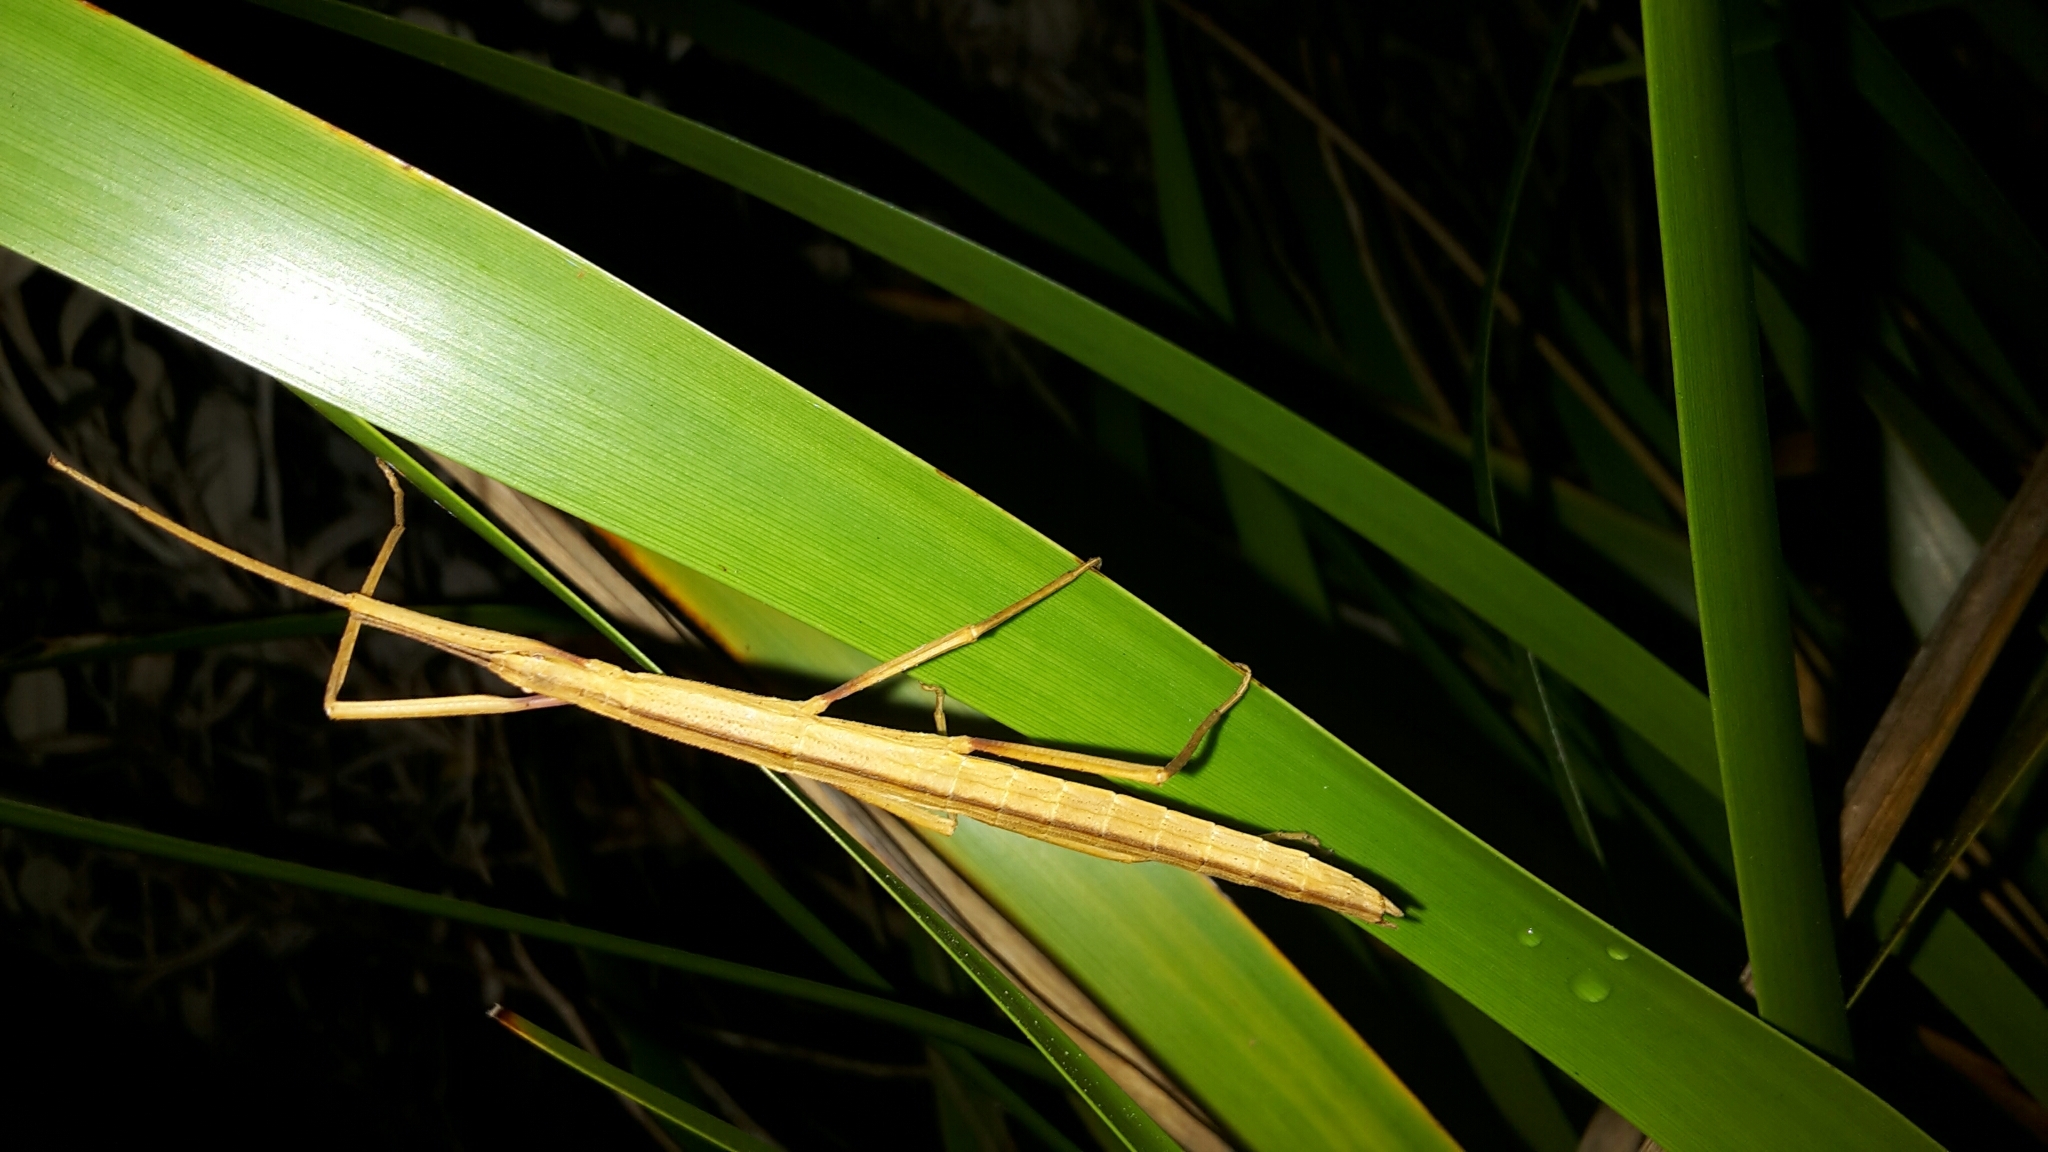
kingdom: Animalia
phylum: Arthropoda
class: Insecta
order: Phasmida
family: Phasmatidae
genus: Tectarchus
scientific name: Tectarchus huttoni
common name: The common ridge-backed stick insect
